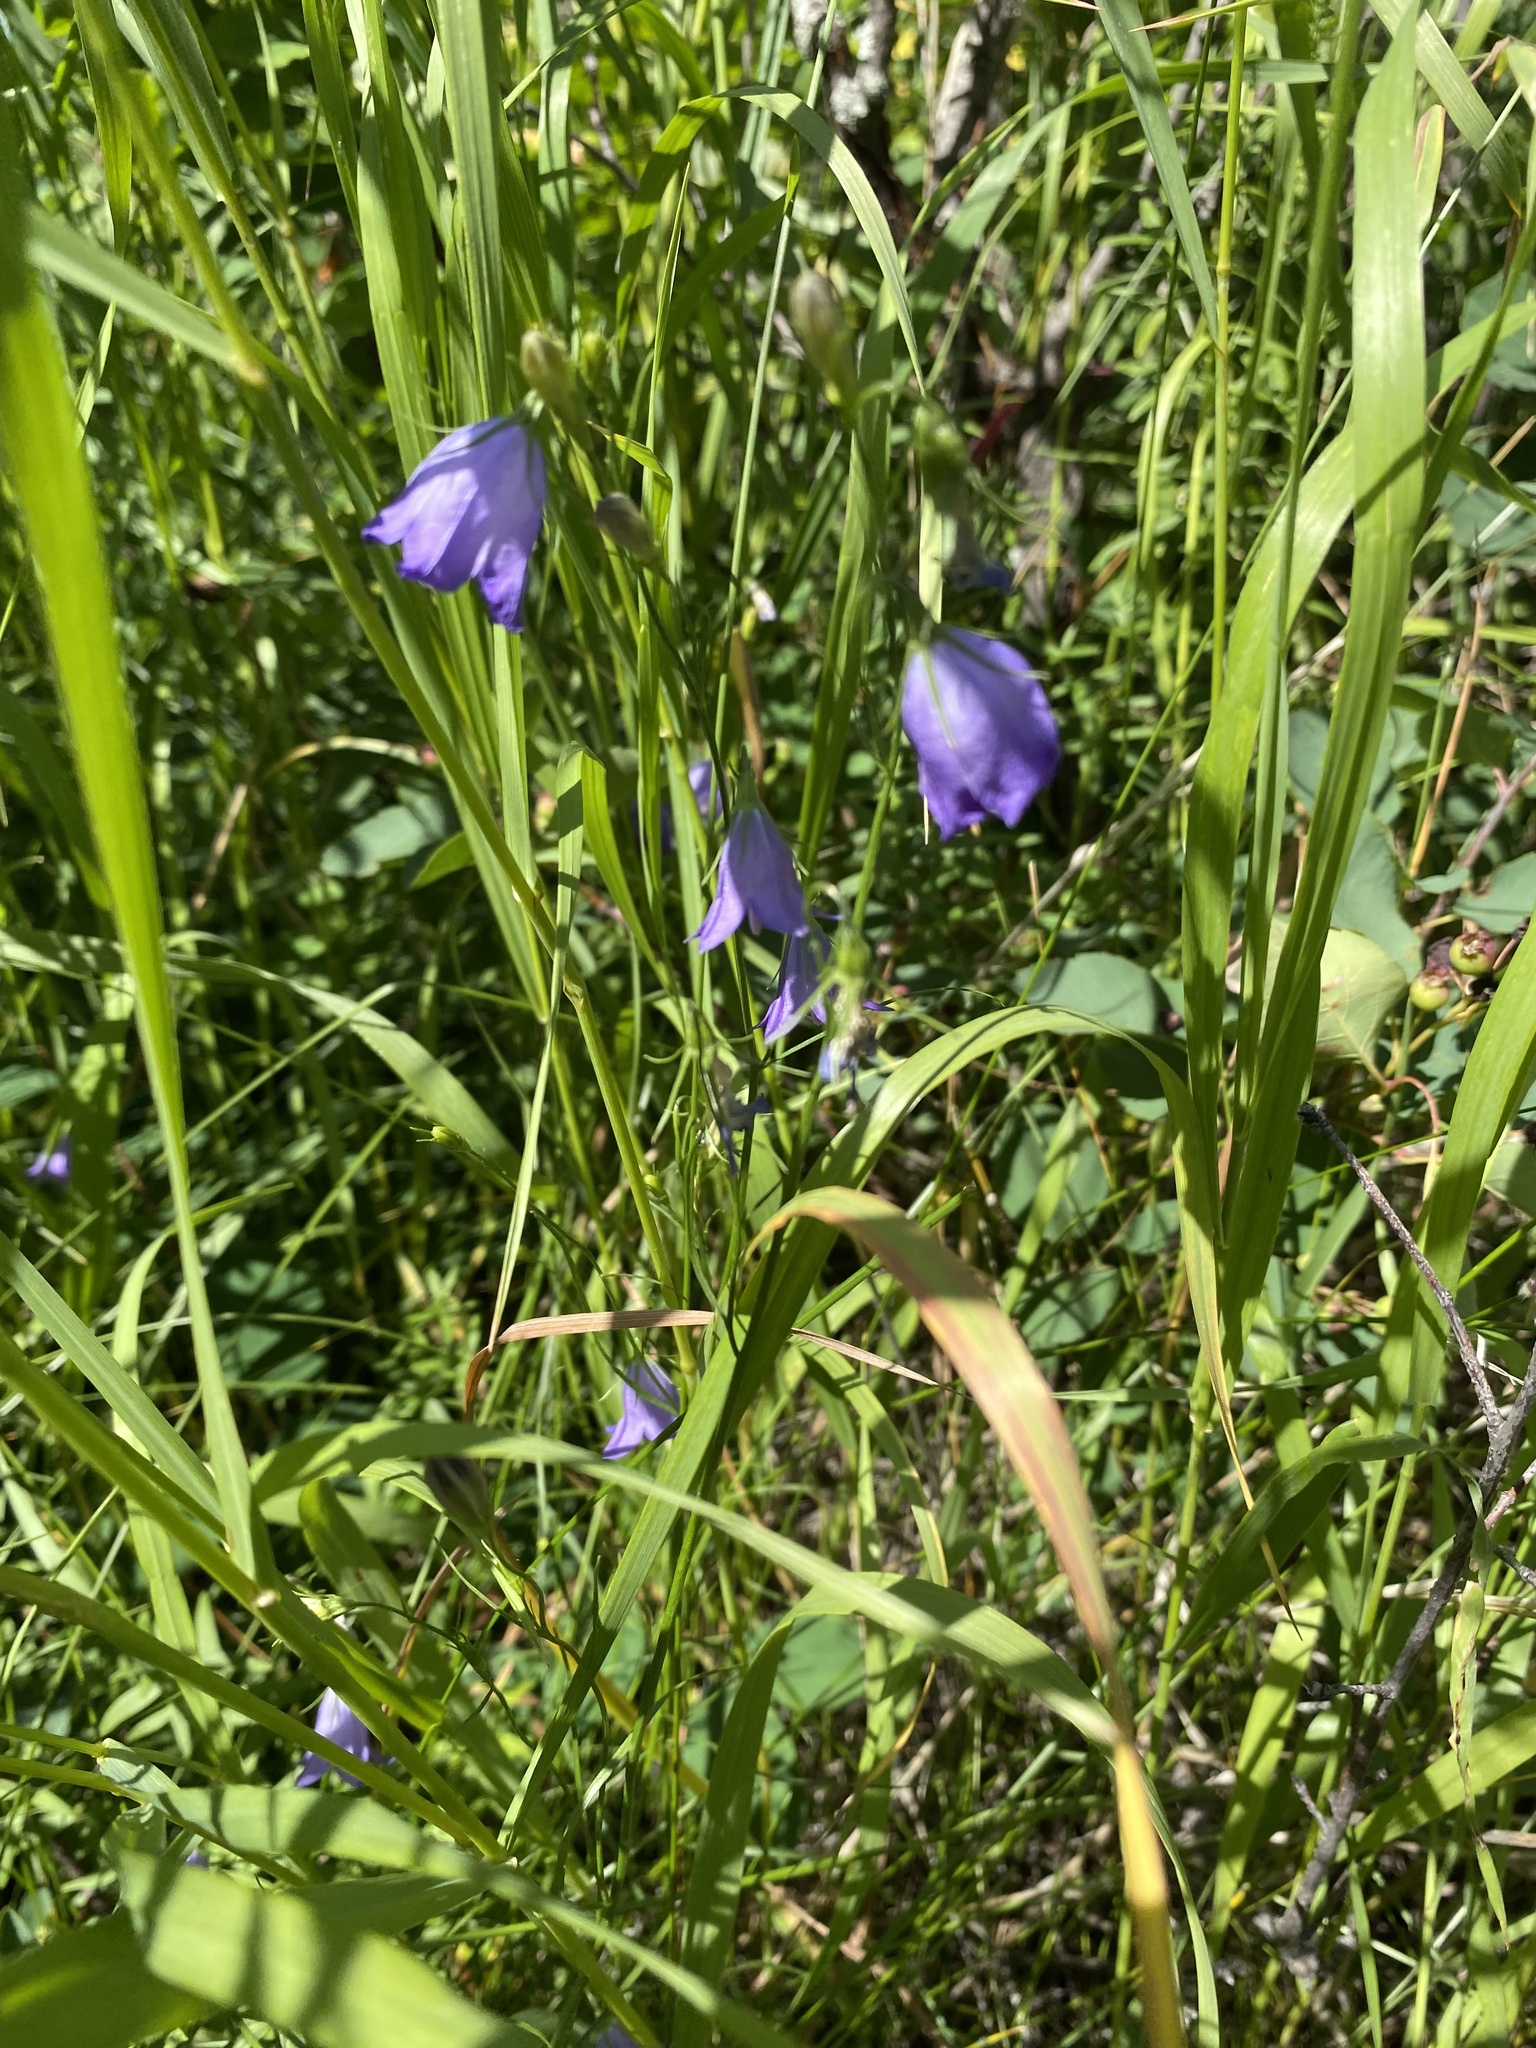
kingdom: Plantae
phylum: Tracheophyta
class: Magnoliopsida
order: Asterales
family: Campanulaceae
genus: Campanula
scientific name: Campanula alaskana
